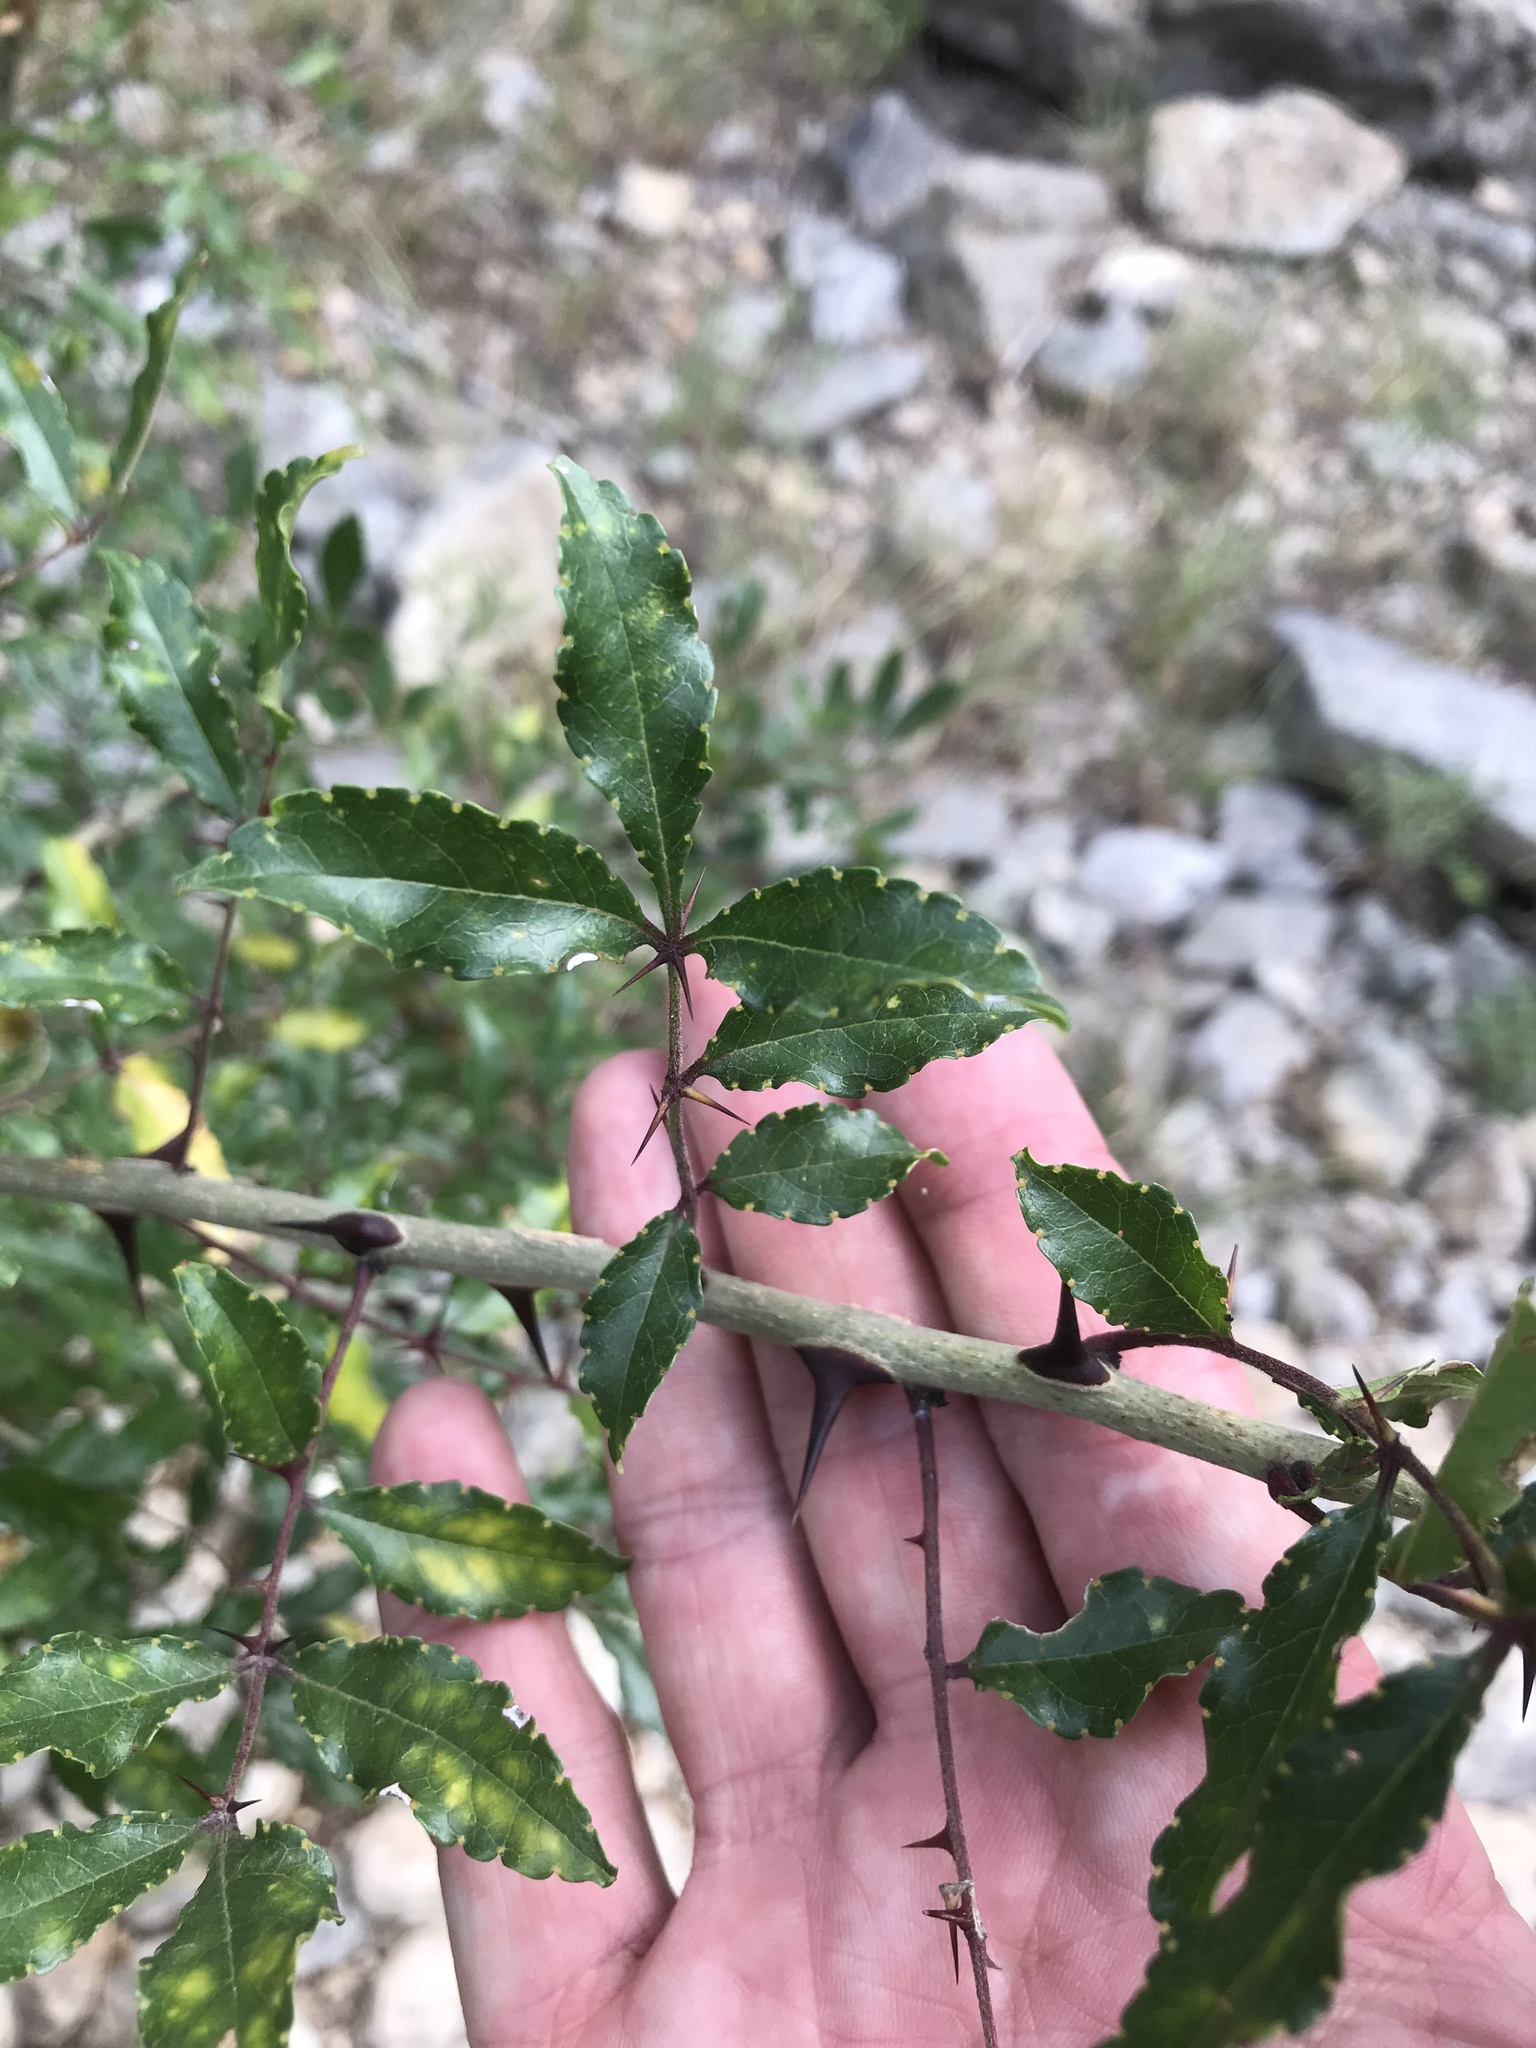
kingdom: Plantae
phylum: Tracheophyta
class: Magnoliopsida
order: Sapindales
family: Rutaceae
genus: Zanthoxylum
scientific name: Zanthoxylum clava-herculis
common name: Hercules'-club
